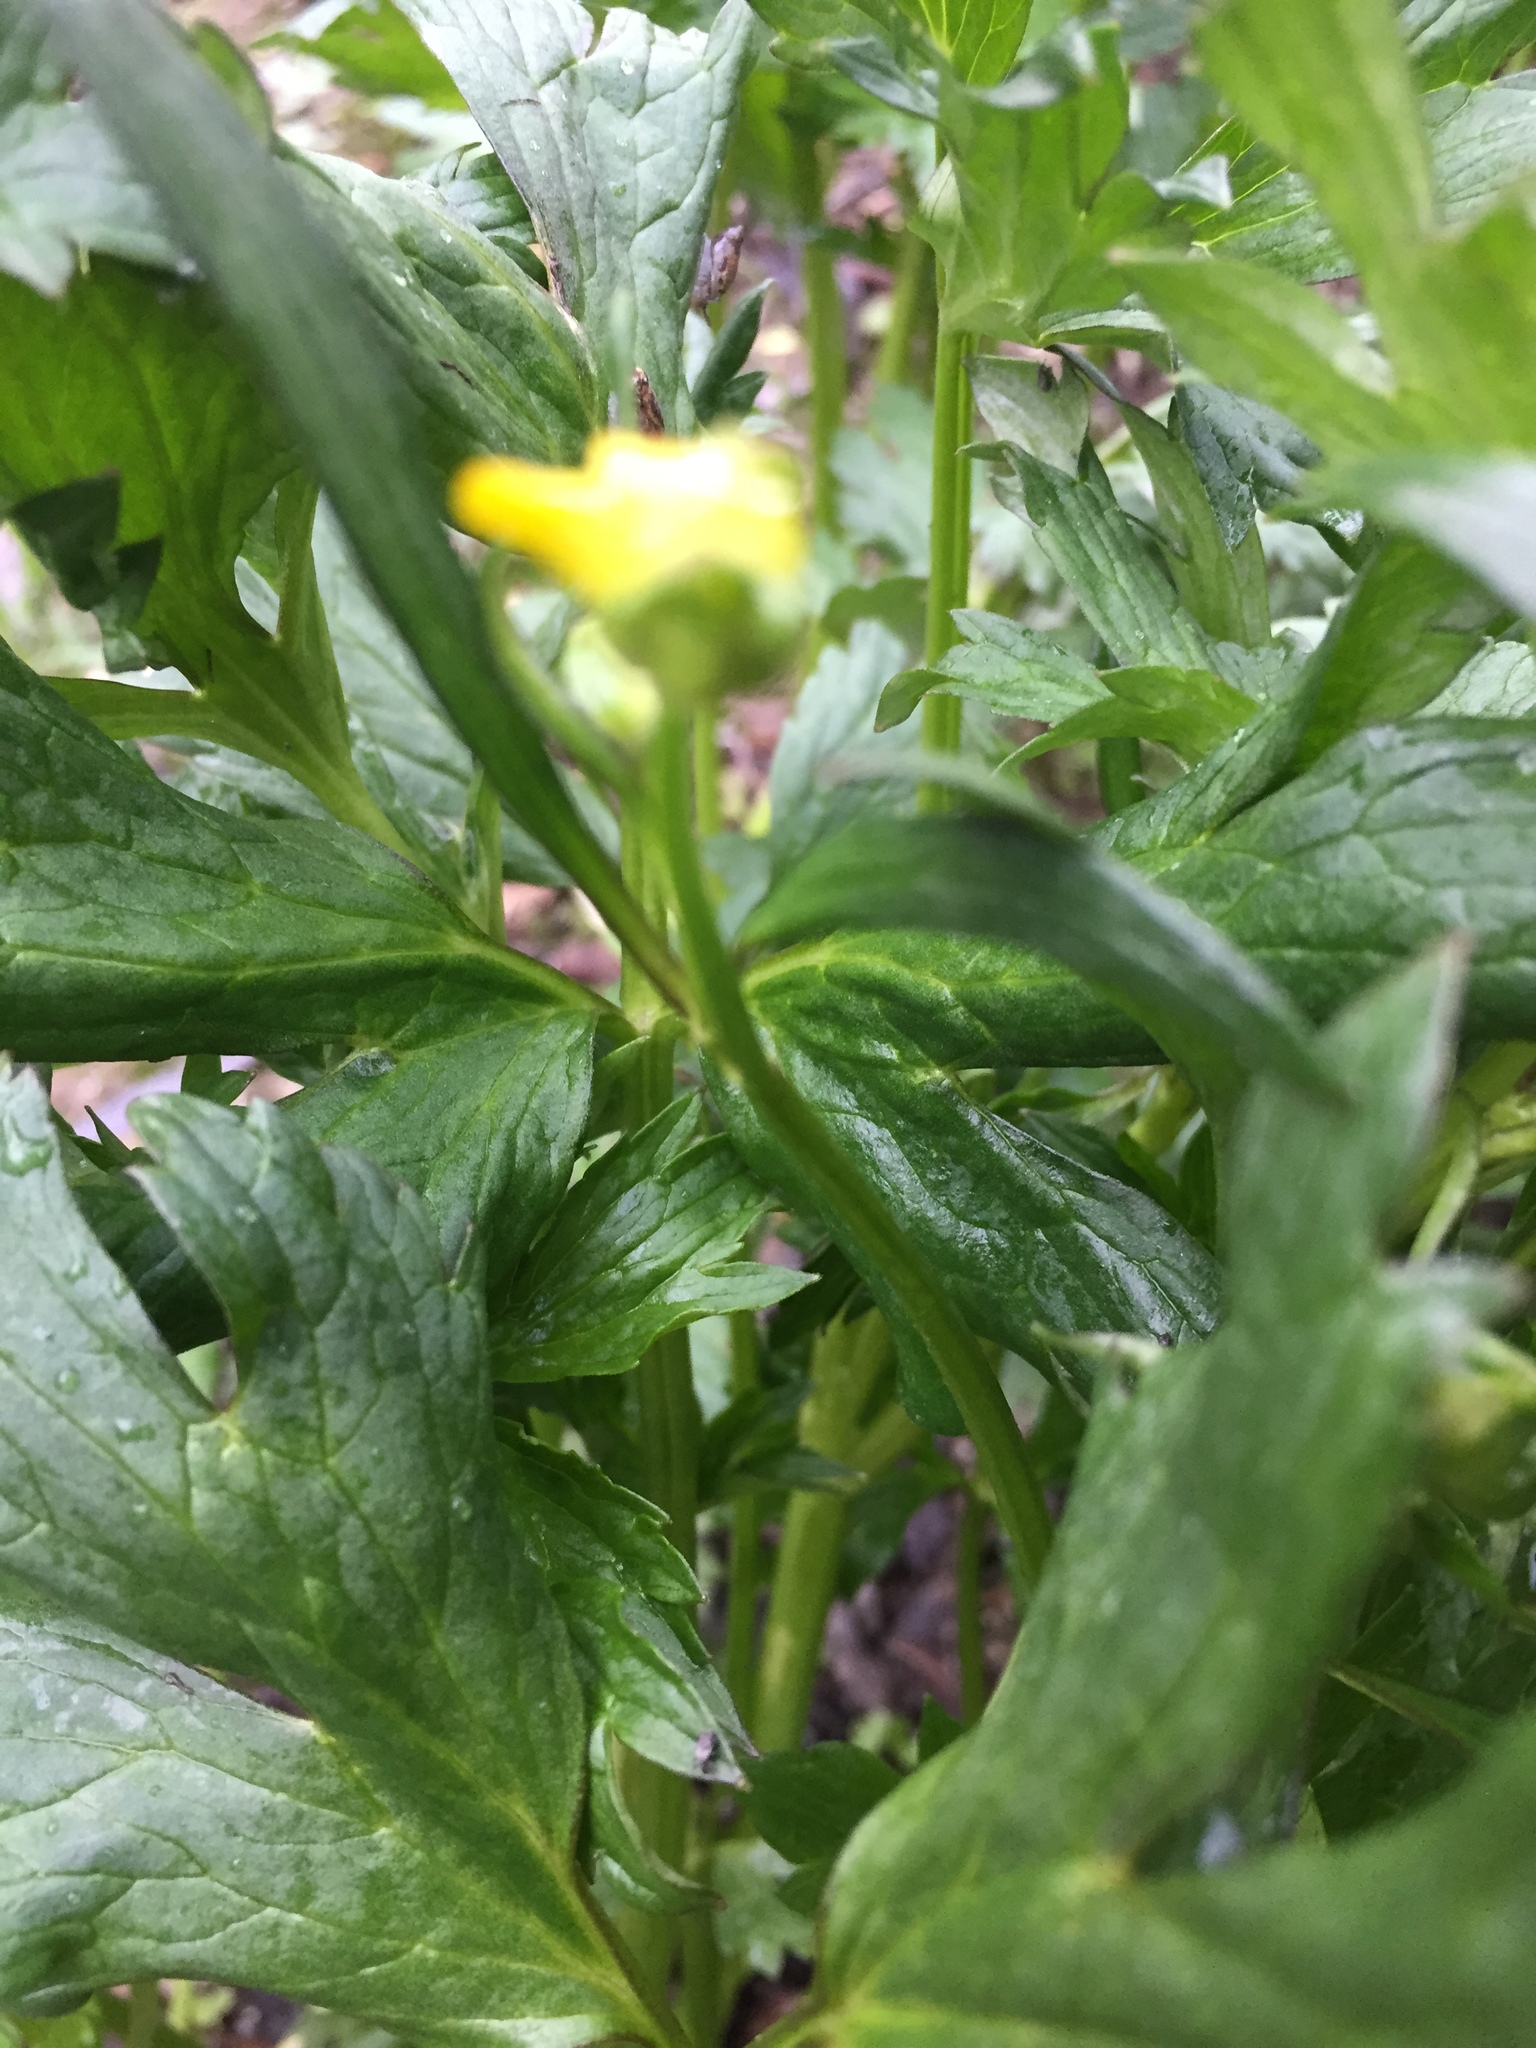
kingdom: Plantae
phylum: Tracheophyta
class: Magnoliopsida
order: Ranunculales
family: Ranunculaceae
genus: Ranunculus
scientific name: Ranunculus repens
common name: Creeping buttercup
